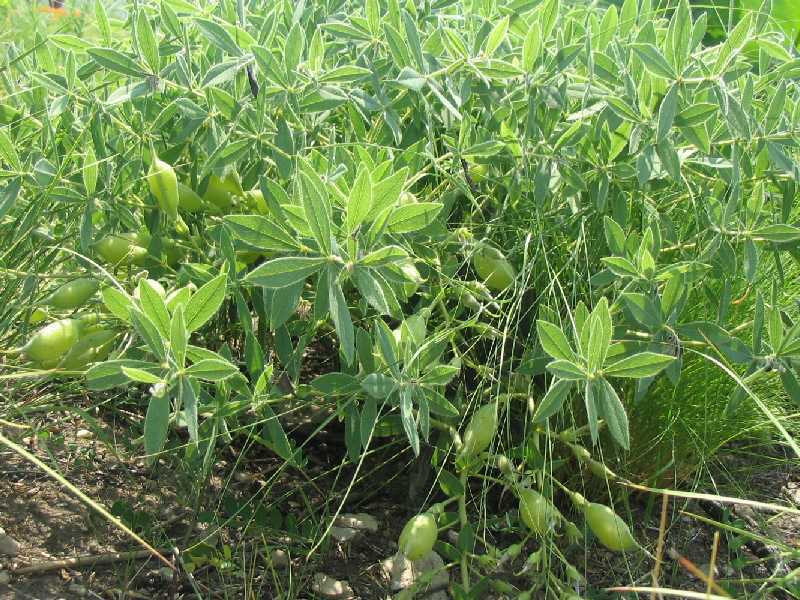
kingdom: Plantae
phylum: Tracheophyta
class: Magnoliopsida
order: Fabales
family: Fabaceae
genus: Baptisia
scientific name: Baptisia bracteata
